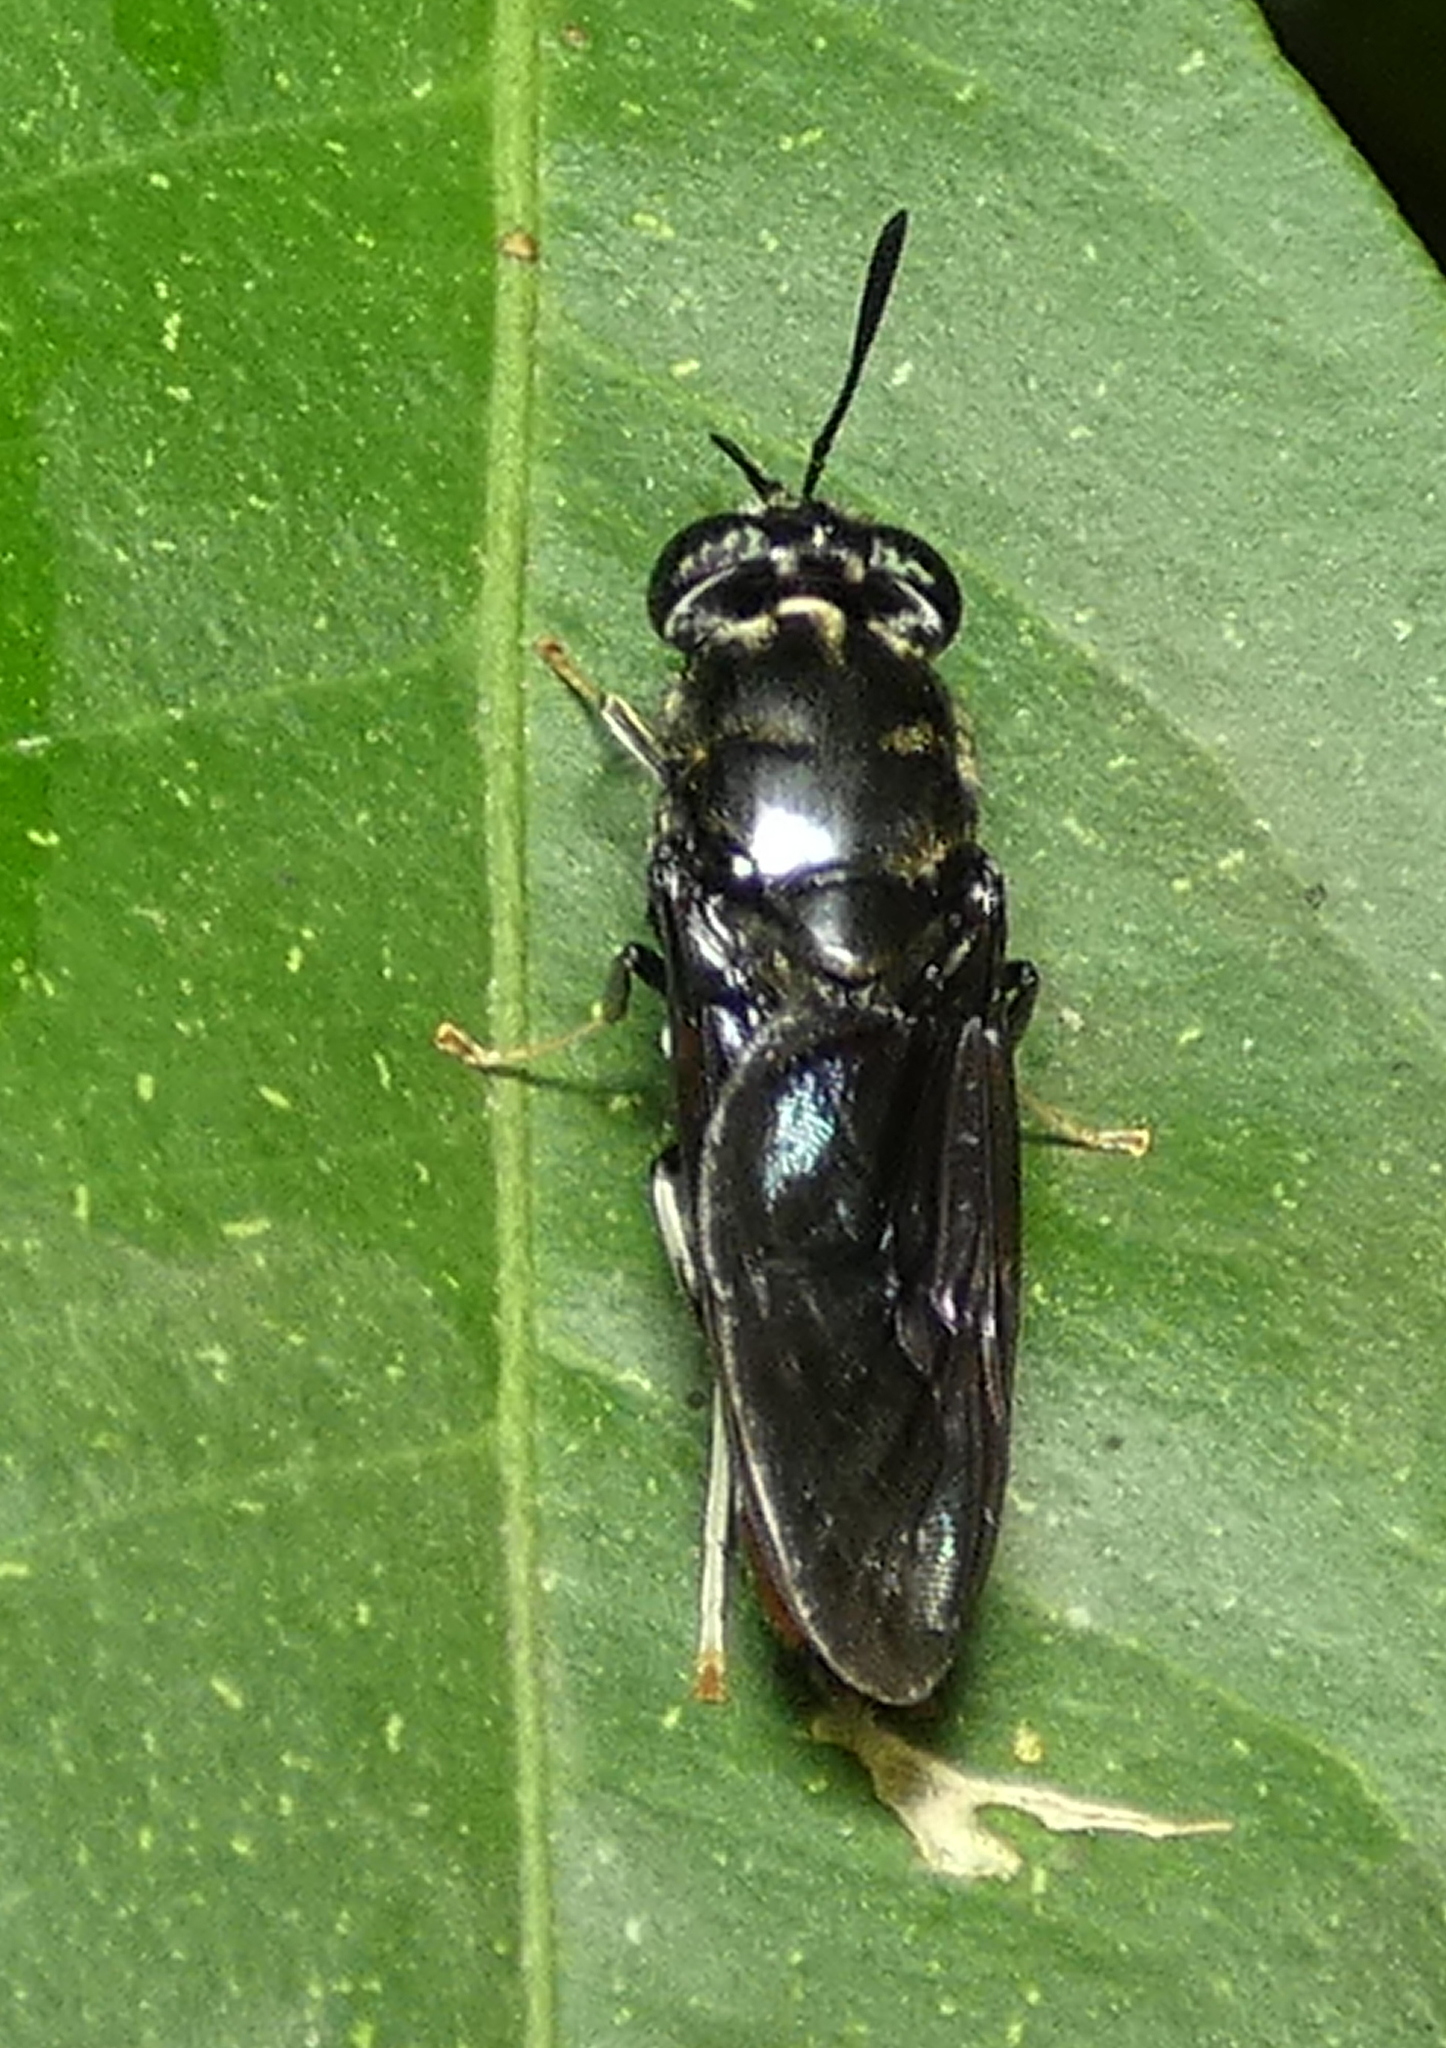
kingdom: Animalia
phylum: Arthropoda
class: Insecta
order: Diptera
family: Stratiomyidae
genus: Hermetia
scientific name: Hermetia illucens
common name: Black soldier fly
